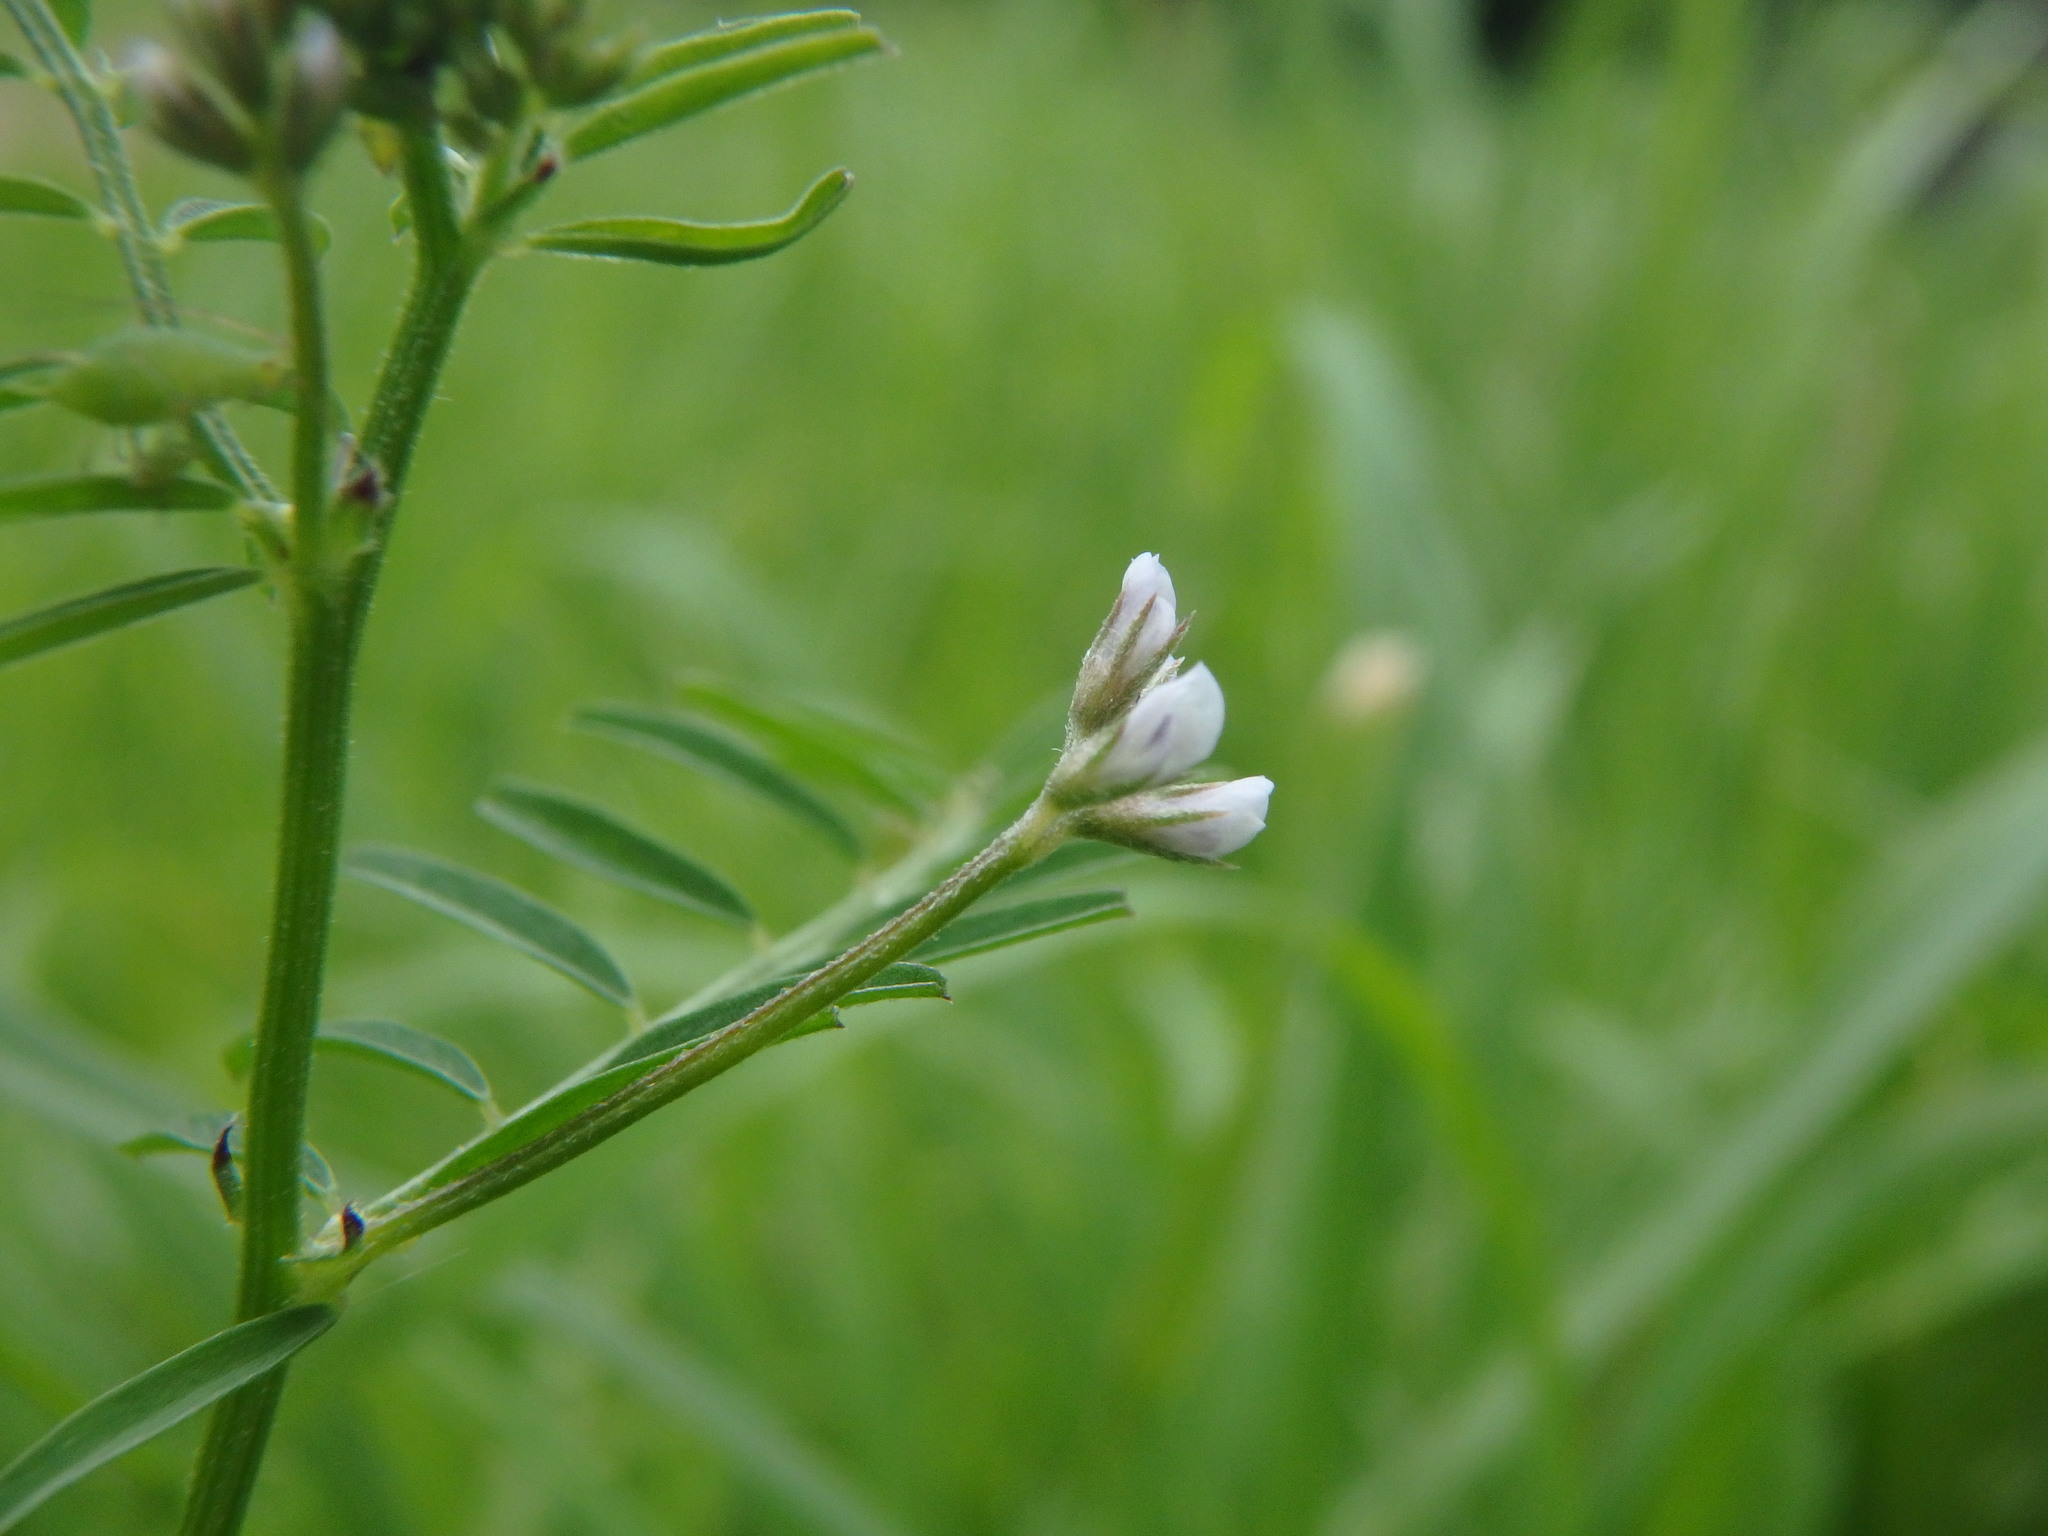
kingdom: Plantae
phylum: Tracheophyta
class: Magnoliopsida
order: Fabales
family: Fabaceae
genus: Vicia
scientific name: Vicia hirsuta
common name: Tiny vetch
